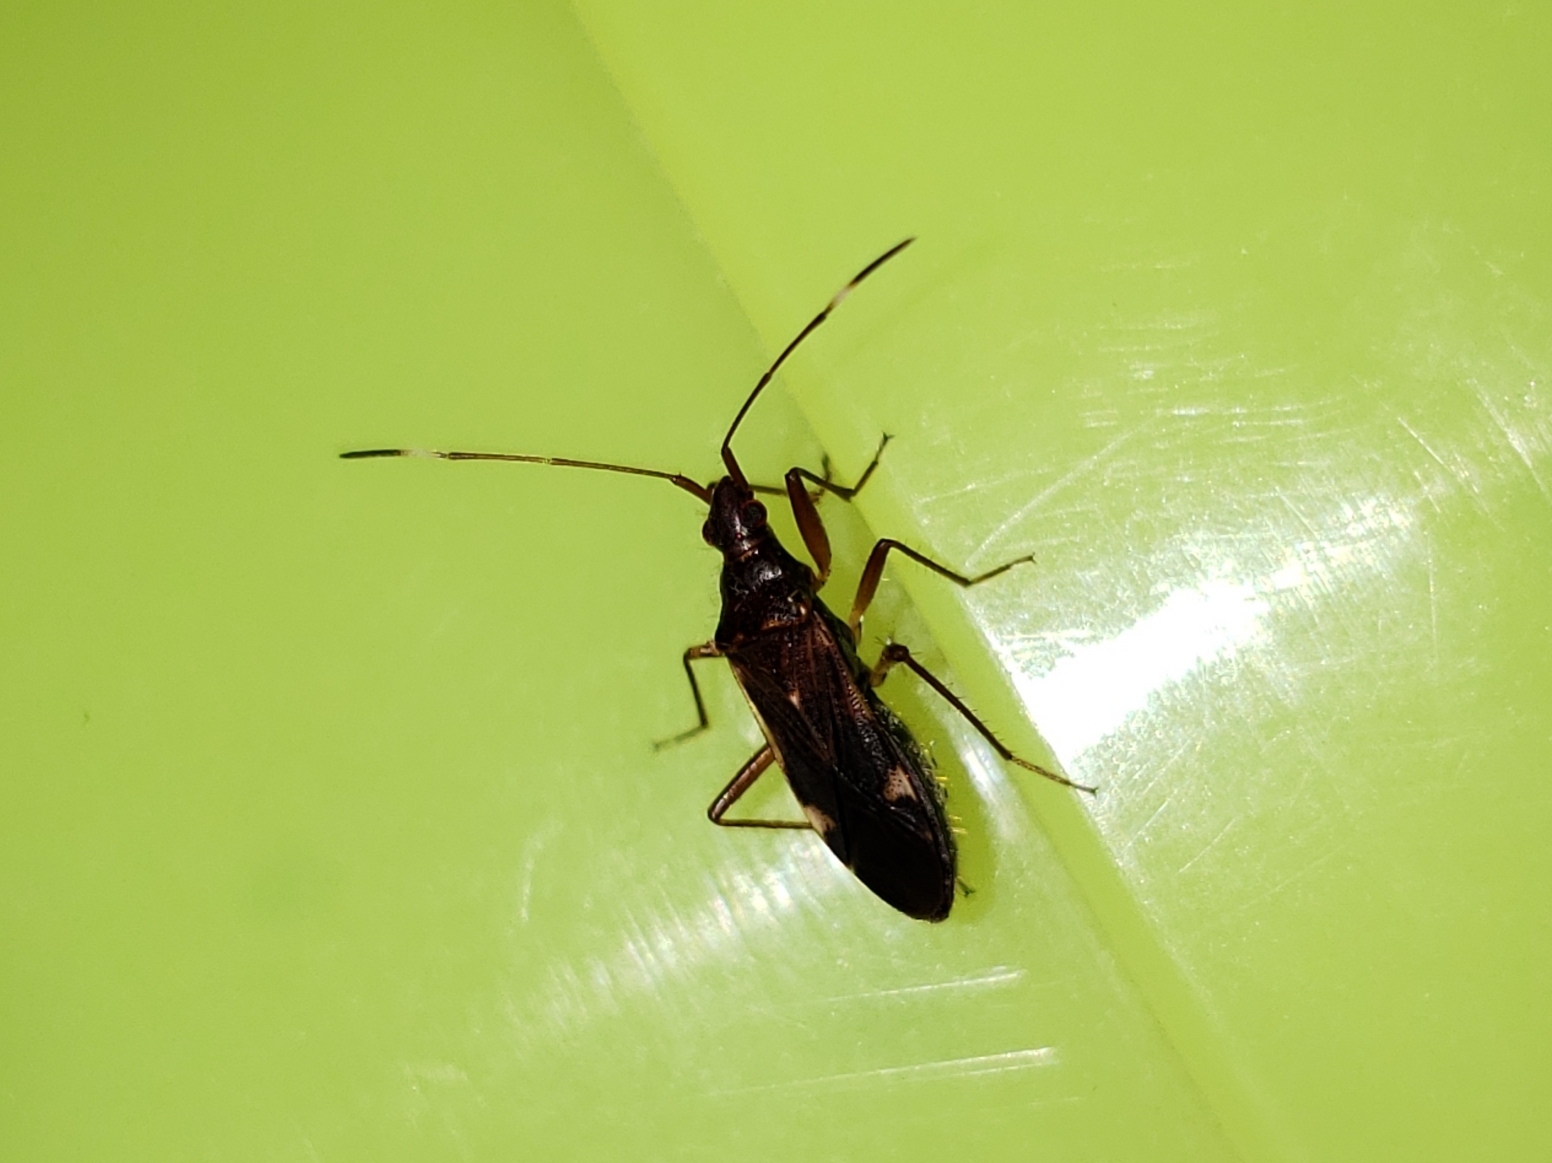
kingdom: Animalia
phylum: Arthropoda
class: Insecta
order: Hemiptera
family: Rhyparochromidae
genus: Ozophora
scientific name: Ozophora trinotata
